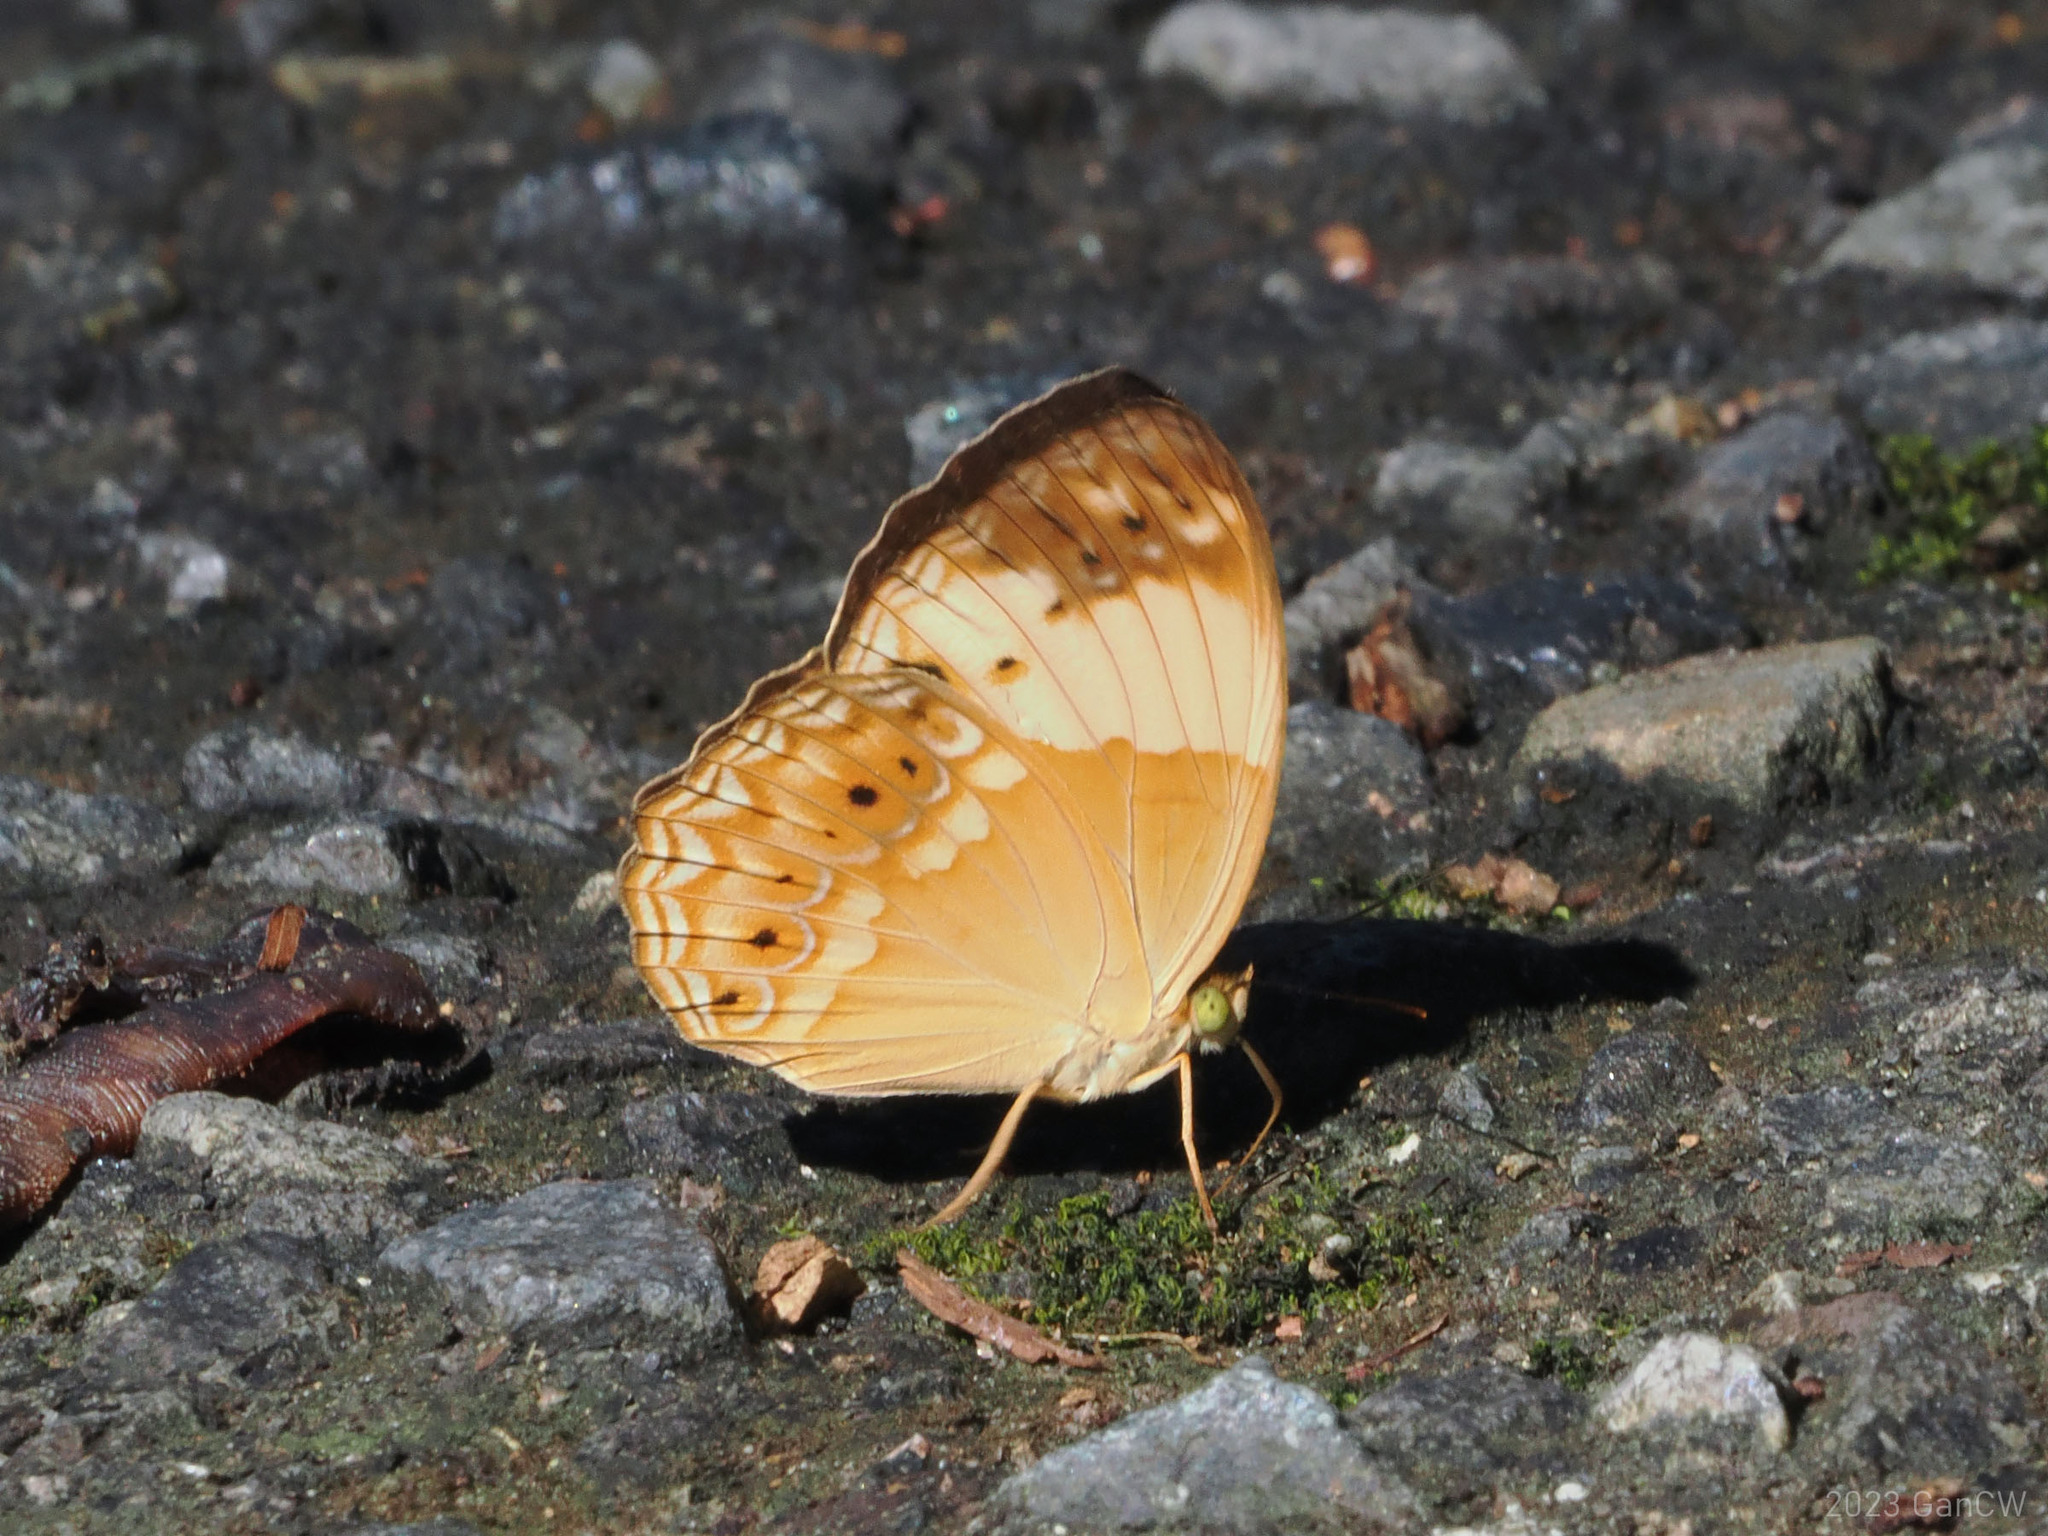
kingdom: Animalia
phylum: Arthropoda
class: Insecta
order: Lepidoptera
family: Nymphalidae
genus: Cupha
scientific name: Cupha arias
